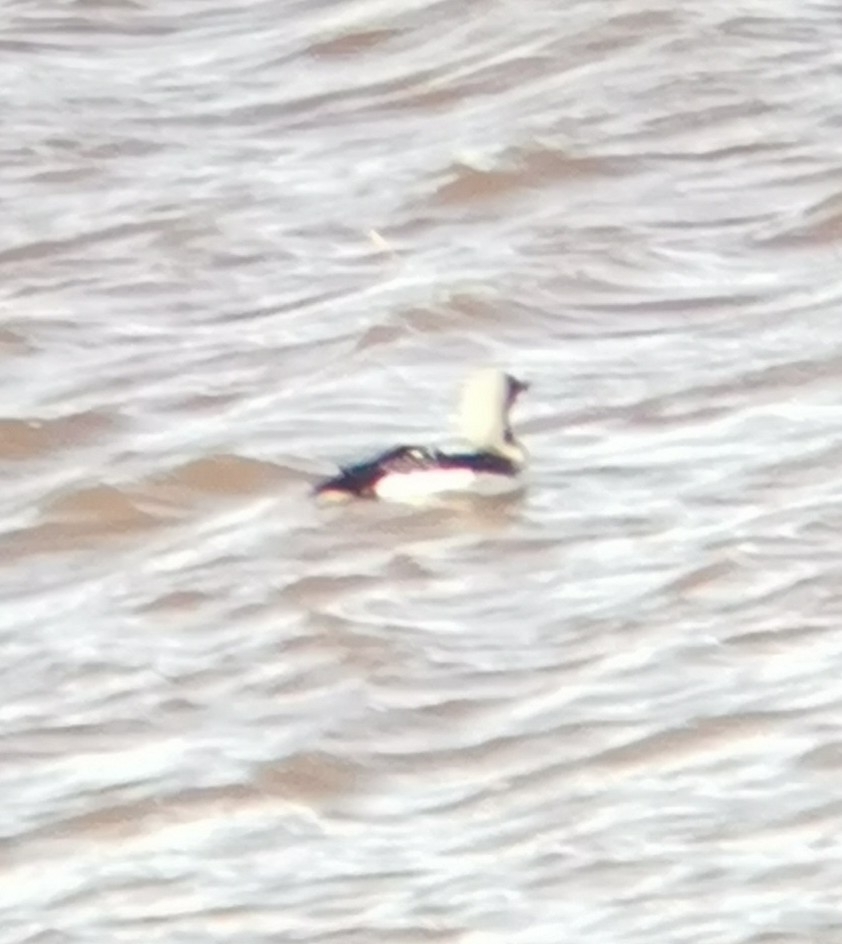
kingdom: Animalia
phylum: Chordata
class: Aves
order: Gaviiformes
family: Gaviidae
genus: Gavia
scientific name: Gavia arctica
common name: Black-throated loon
